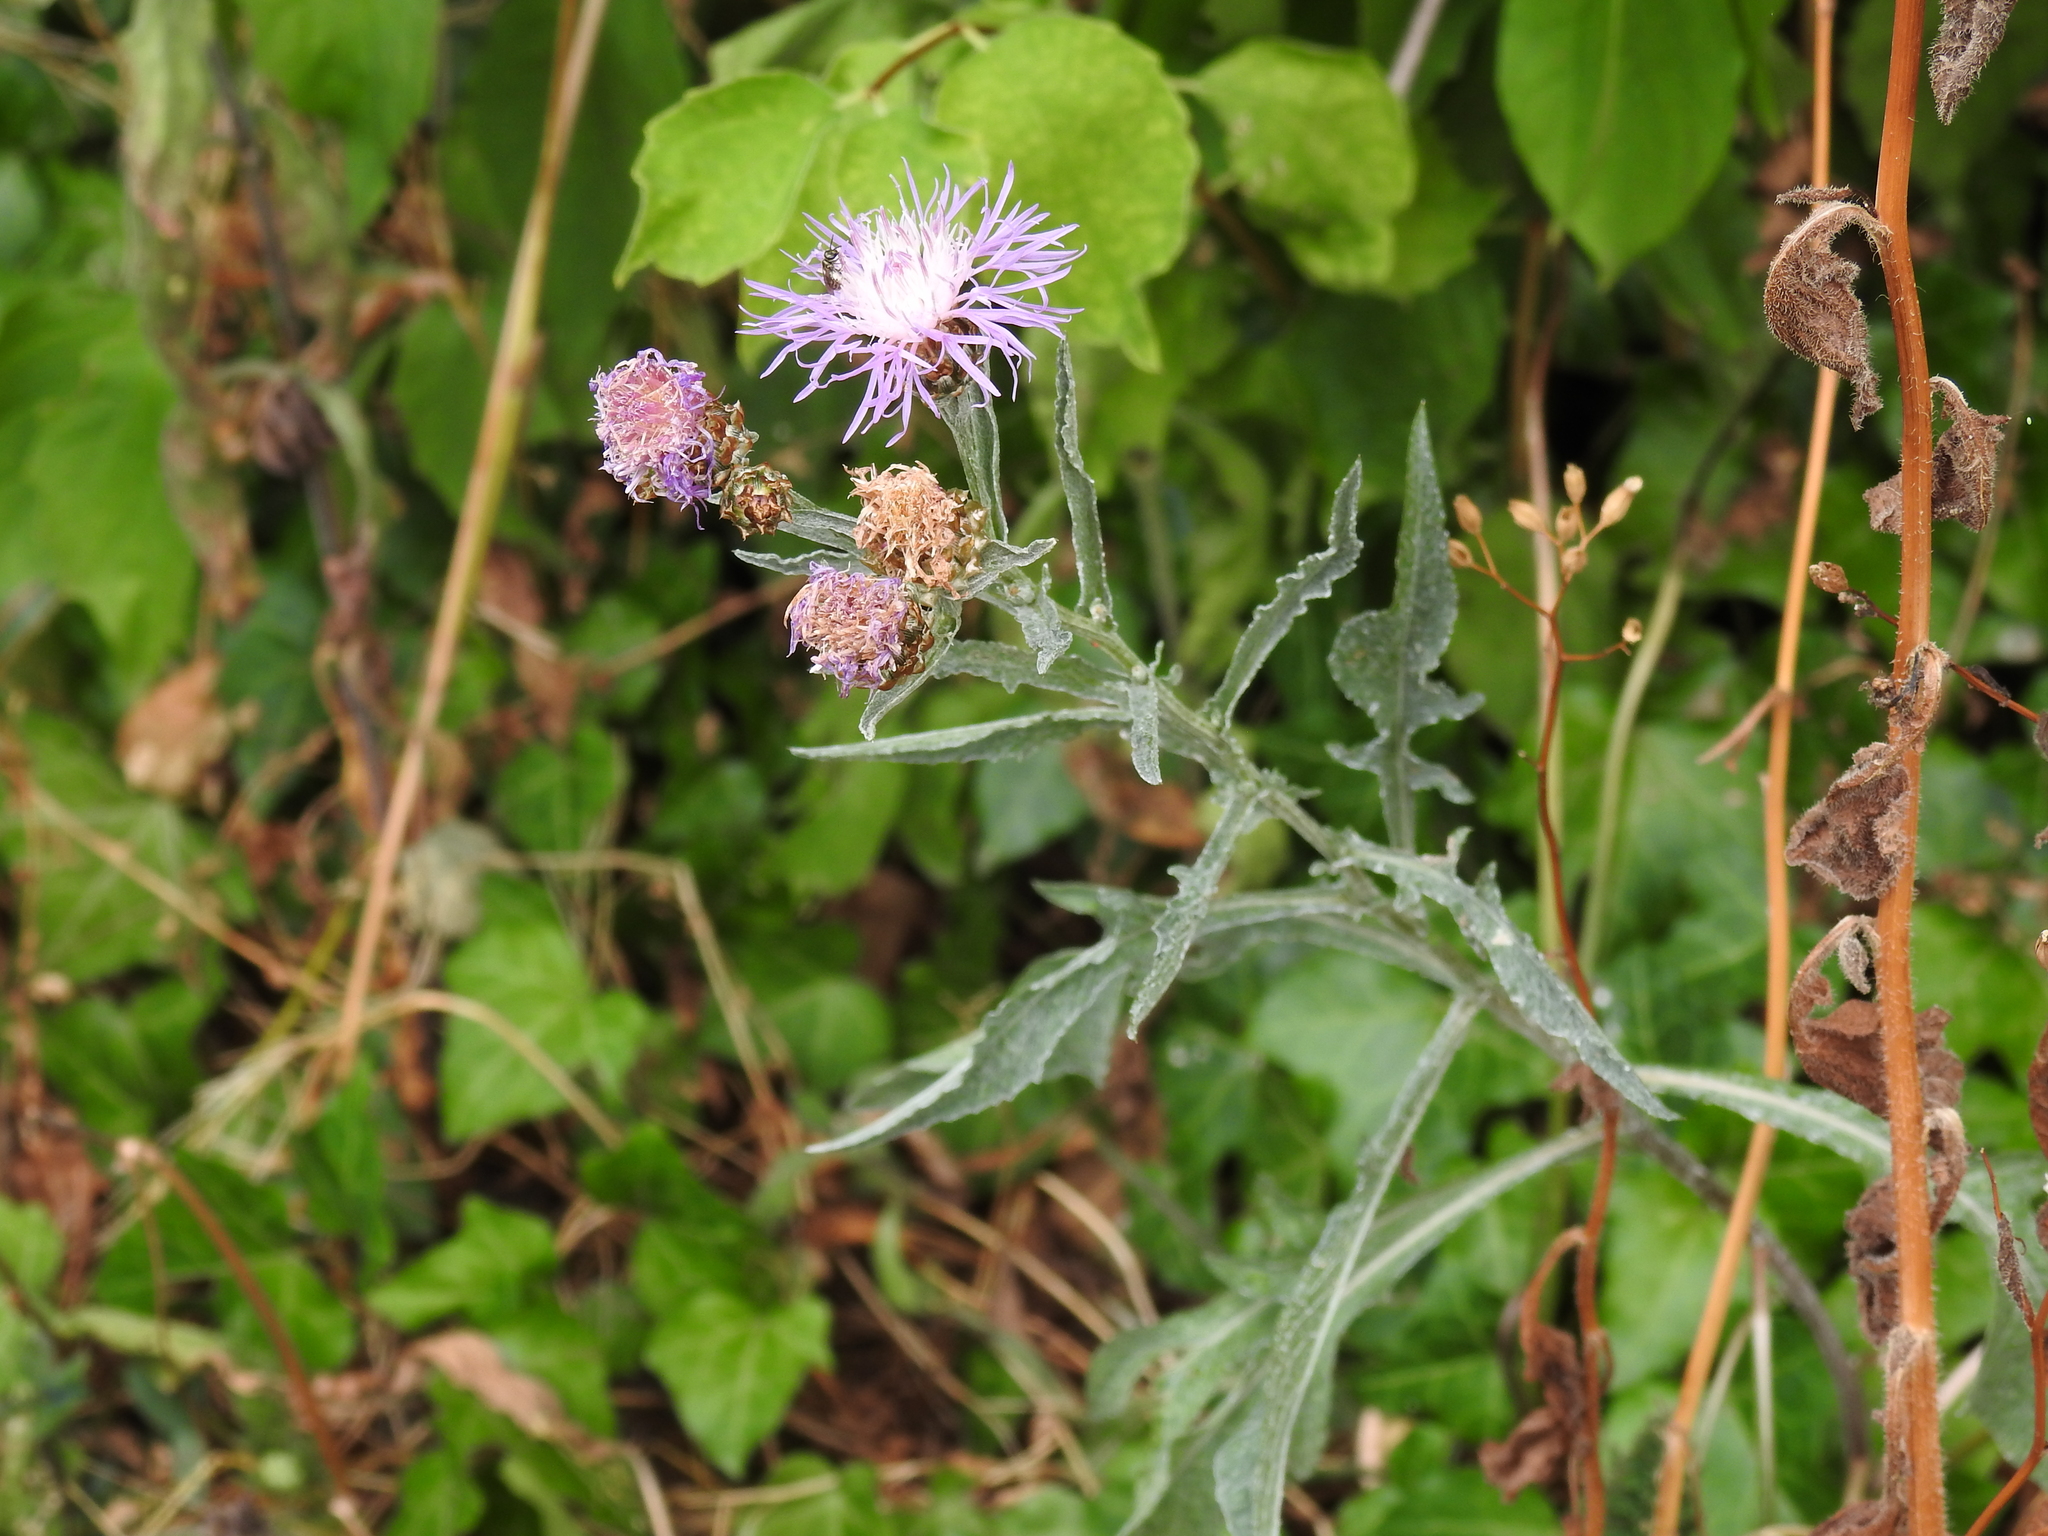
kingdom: Plantae
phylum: Tracheophyta
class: Magnoliopsida
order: Asterales
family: Asteraceae
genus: Centaurea
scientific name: Centaurea jacea
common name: Brown knapweed
